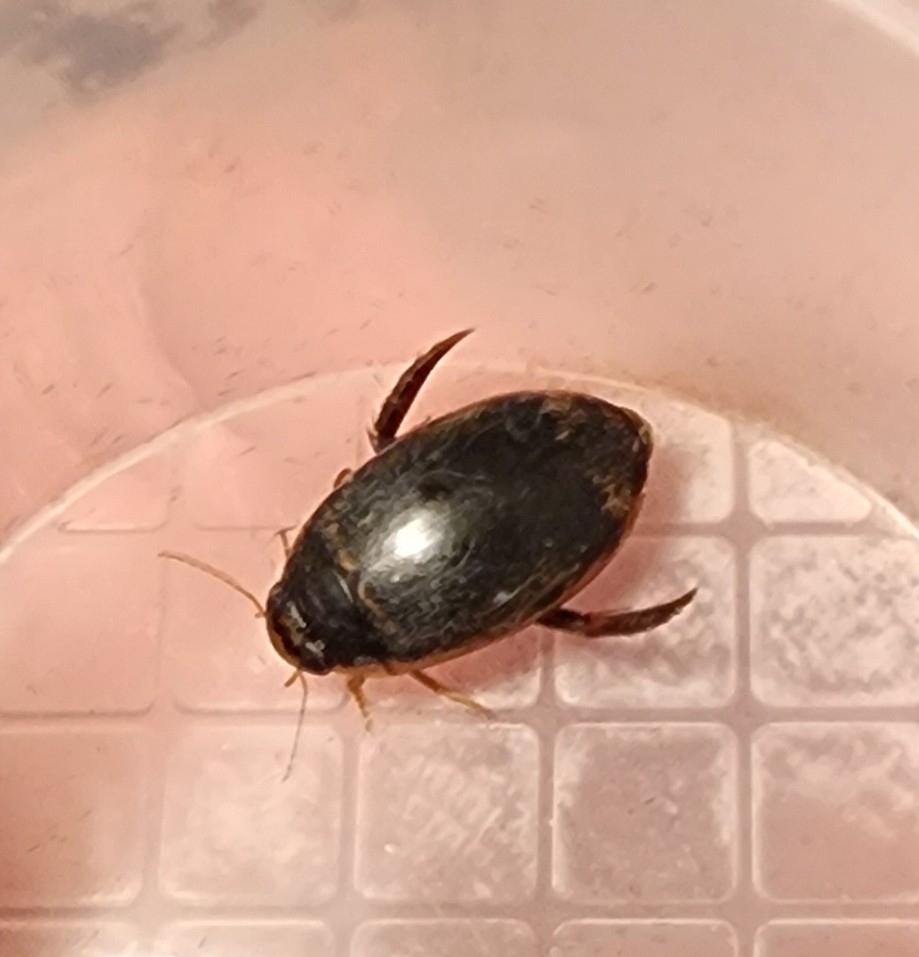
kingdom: Animalia
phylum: Arthropoda
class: Insecta
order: Coleoptera
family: Dytiscidae
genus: Thermonectus
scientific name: Thermonectus basillaris
